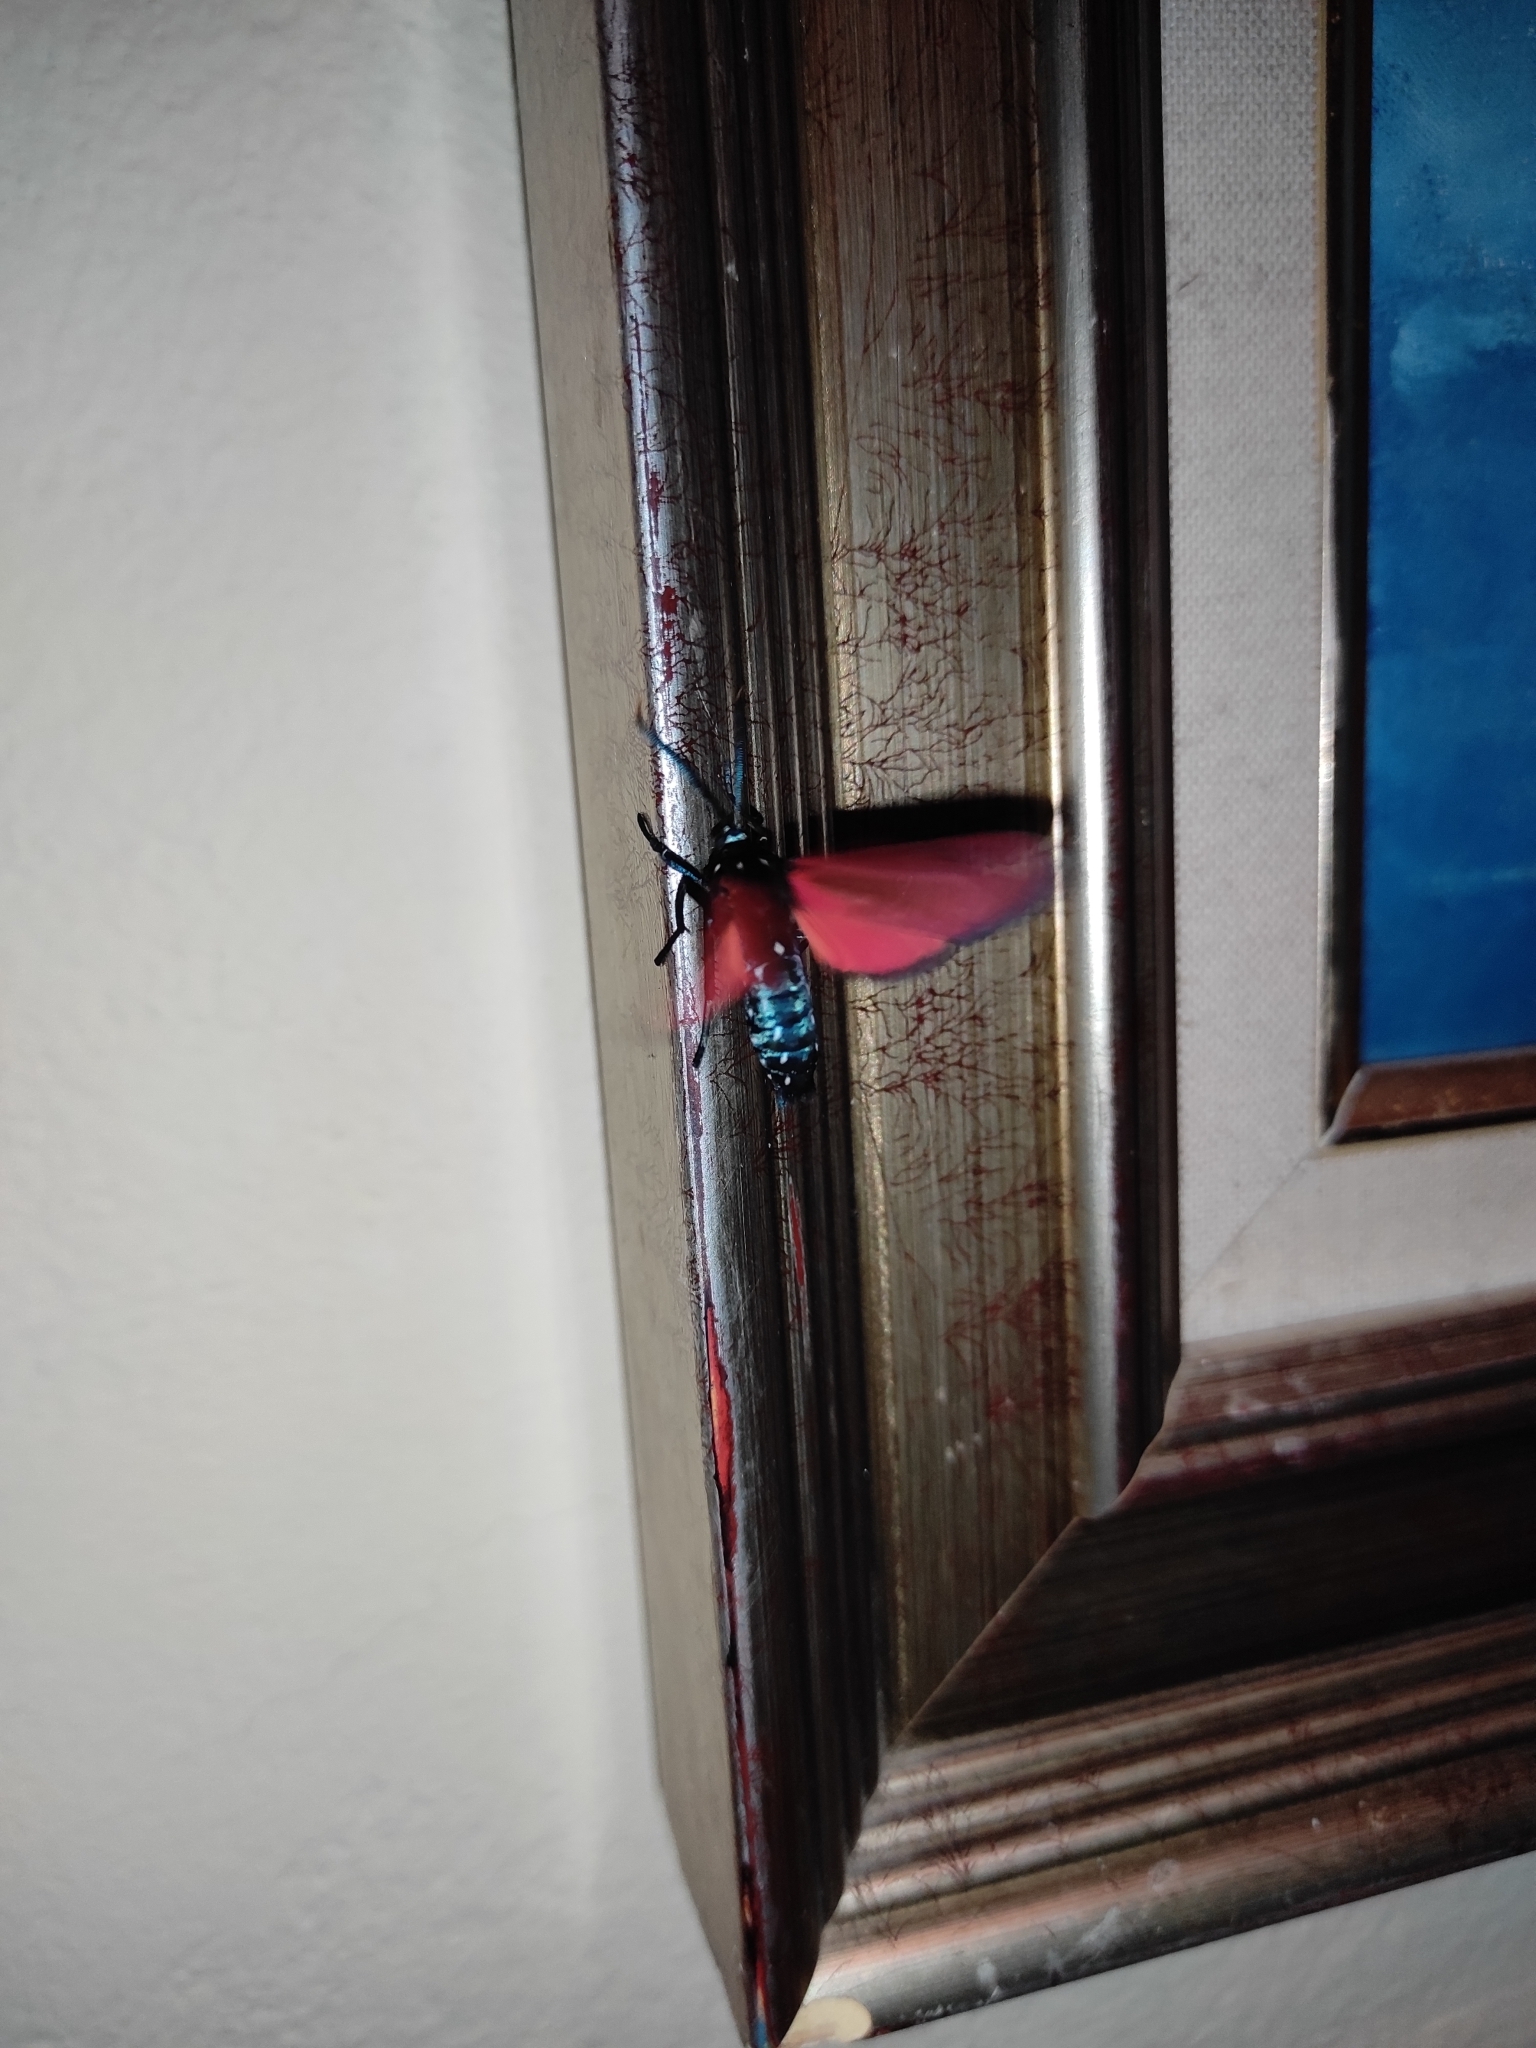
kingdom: Animalia
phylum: Arthropoda
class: Insecta
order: Lepidoptera
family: Erebidae
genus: Empyreuma
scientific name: Empyreuma pugione
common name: Spotted oleander caterpillar moth
